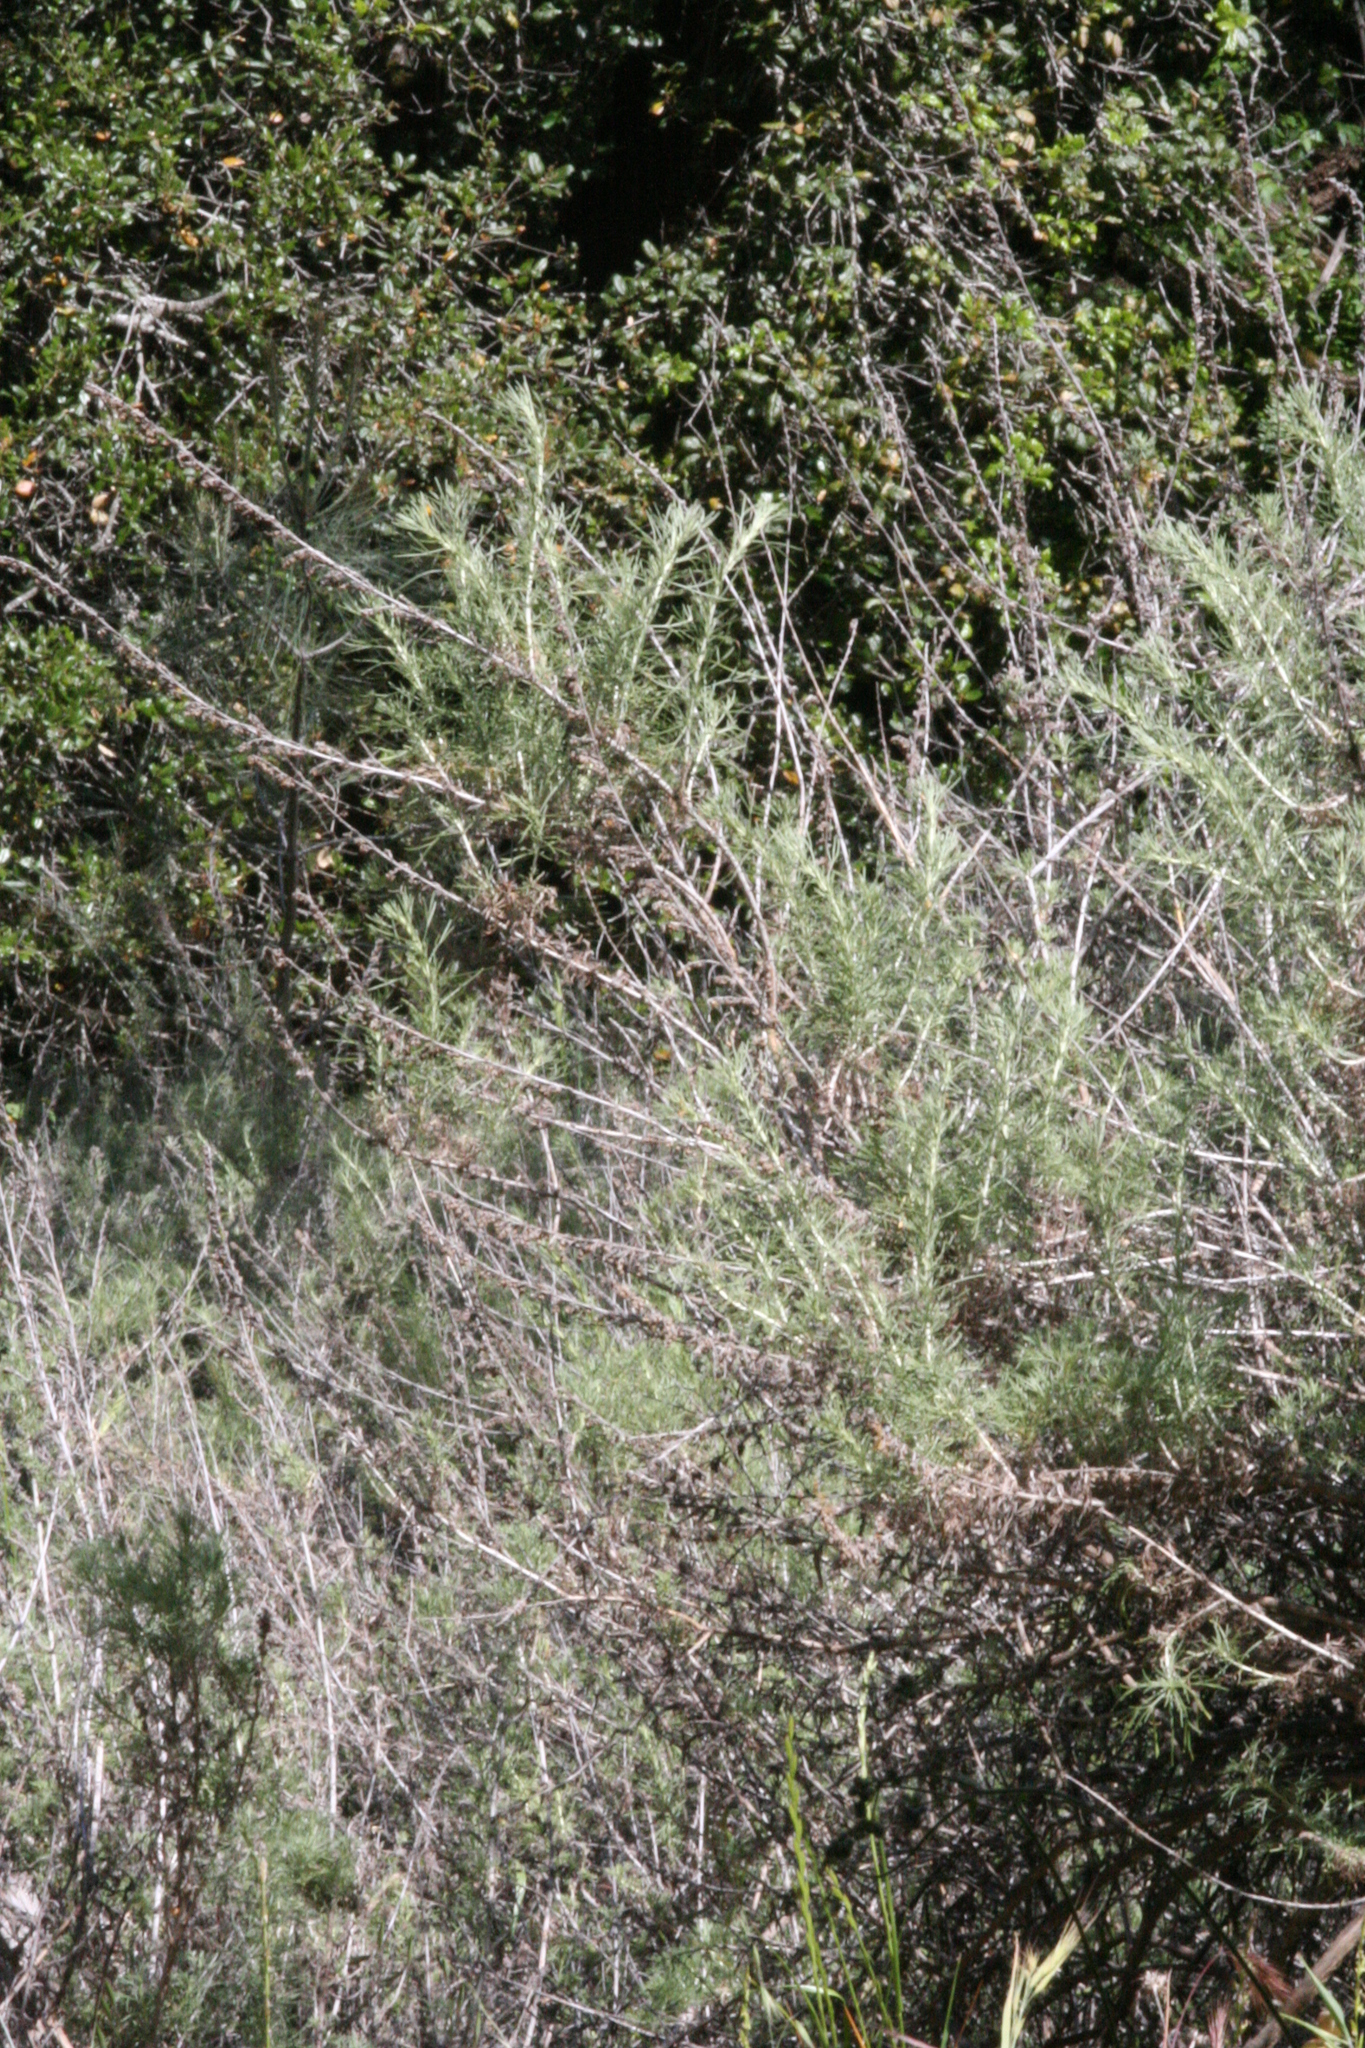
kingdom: Plantae
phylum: Tracheophyta
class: Magnoliopsida
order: Asterales
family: Asteraceae
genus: Artemisia
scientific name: Artemisia californica
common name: California sagebrush
